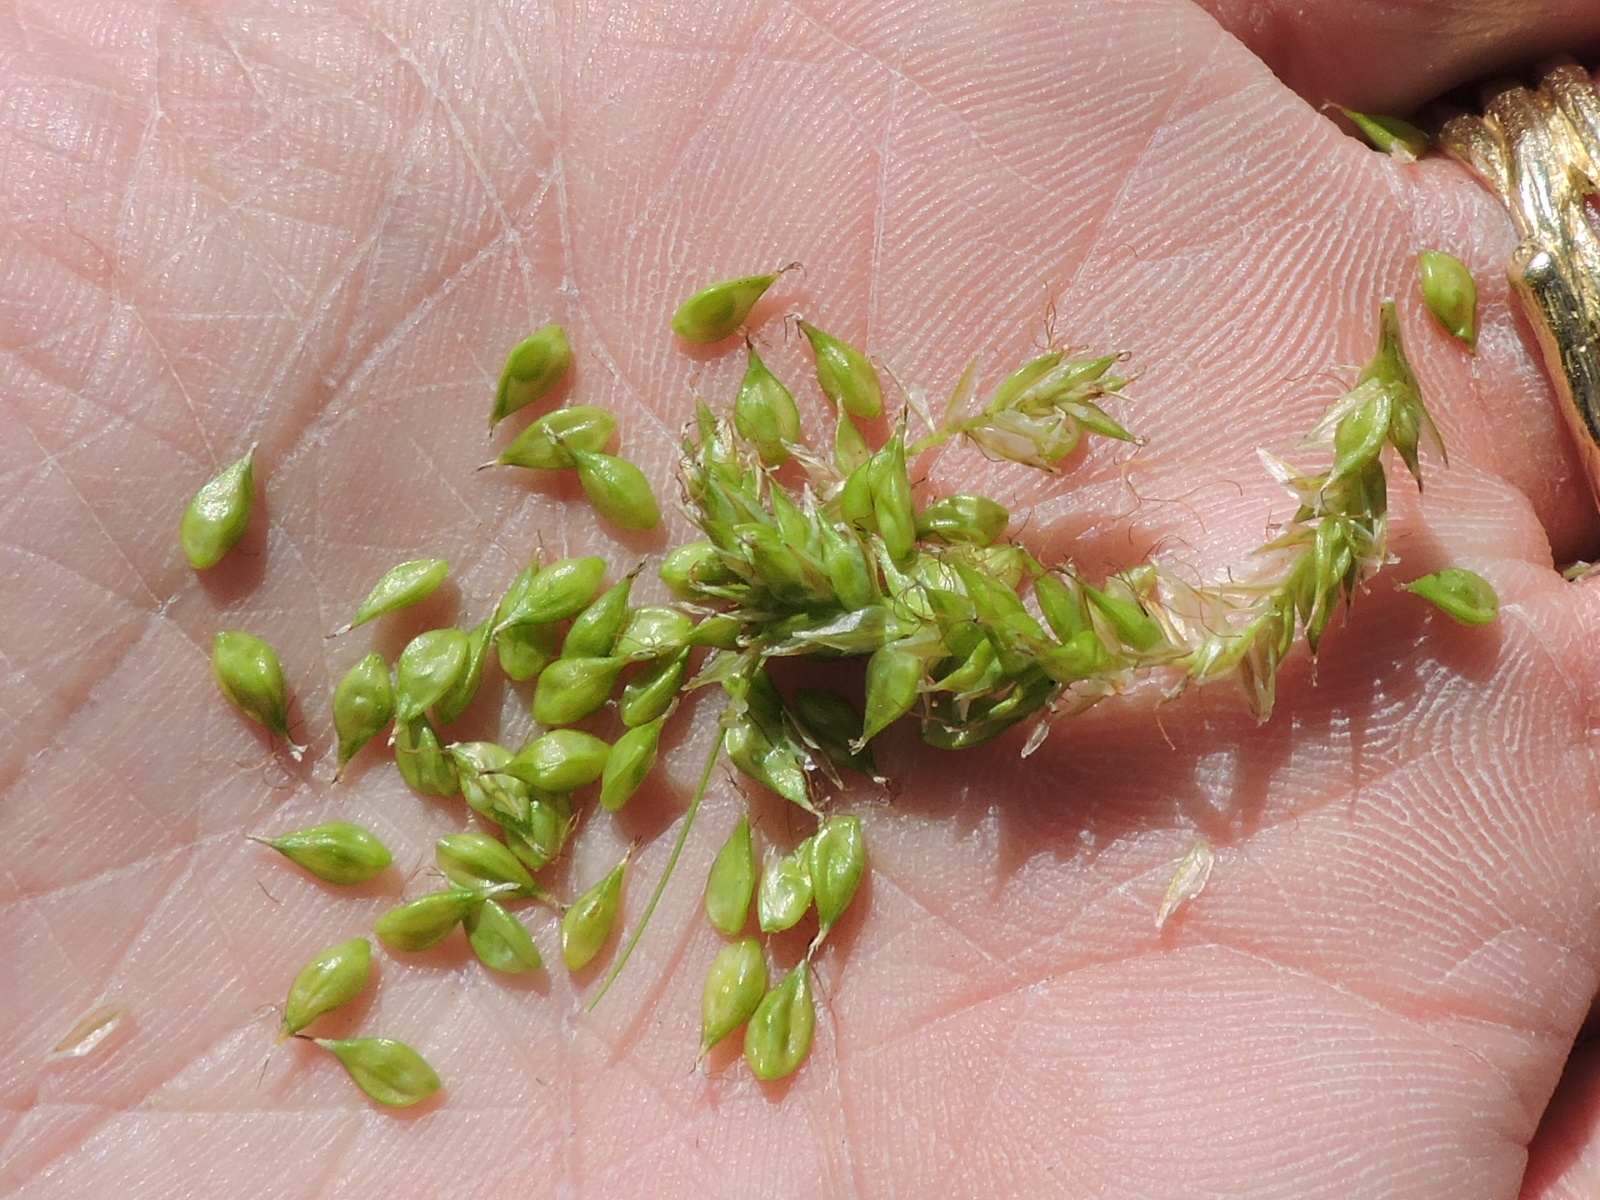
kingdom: Plantae
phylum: Tracheophyta
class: Liliopsida
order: Poales
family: Cyperaceae
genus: Carex
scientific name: Carex cherokeensis
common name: Cherokee sedge
